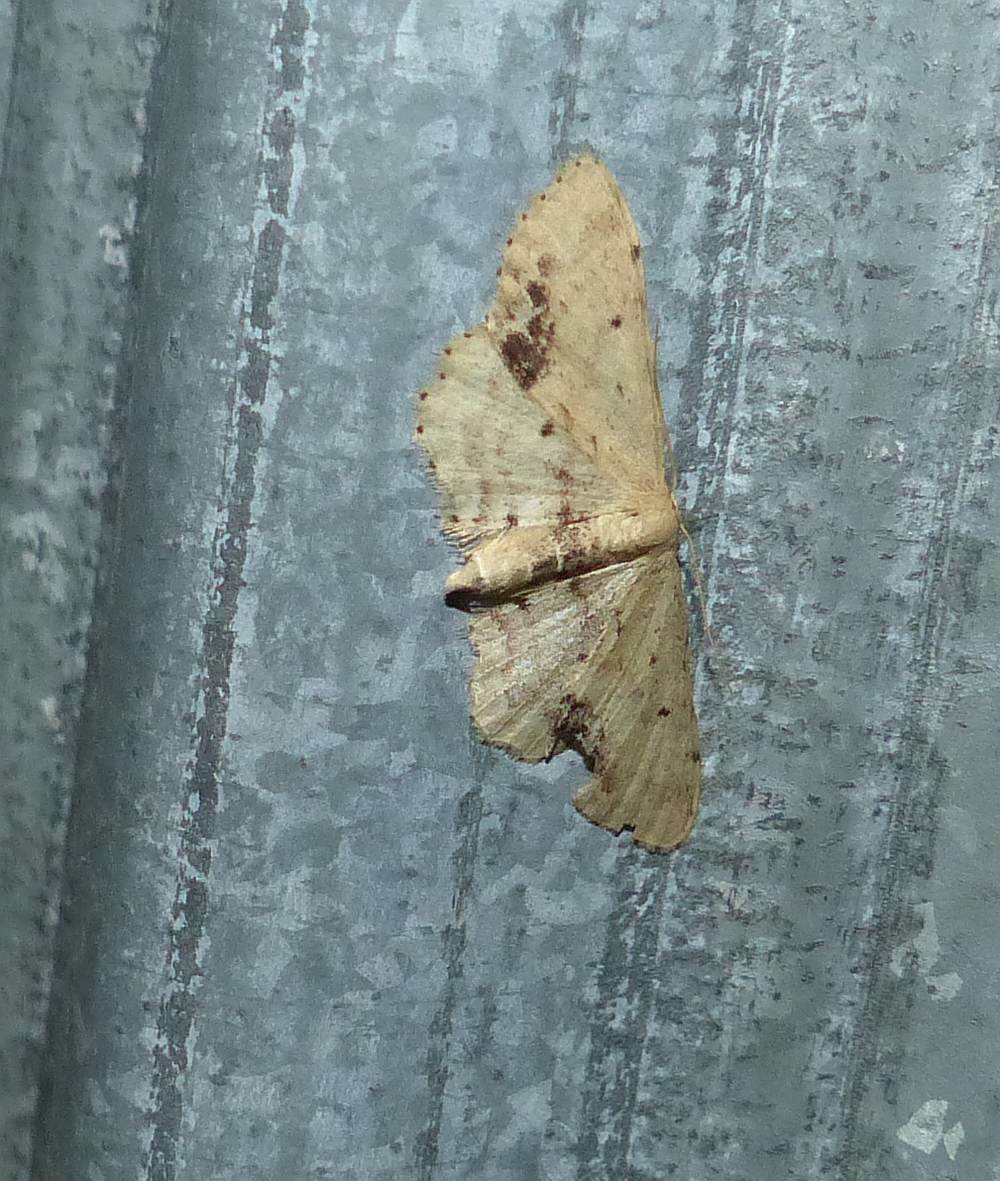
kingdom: Animalia
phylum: Arthropoda
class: Insecta
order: Lepidoptera
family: Geometridae
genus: Idaea
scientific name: Idaea dimidiata
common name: Single-dotted wave
